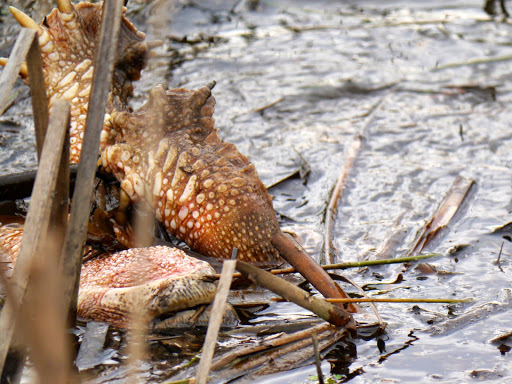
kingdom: Animalia
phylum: Chordata
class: Testudines
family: Chelydridae
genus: Chelydra
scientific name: Chelydra serpentina
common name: Common snapping turtle
